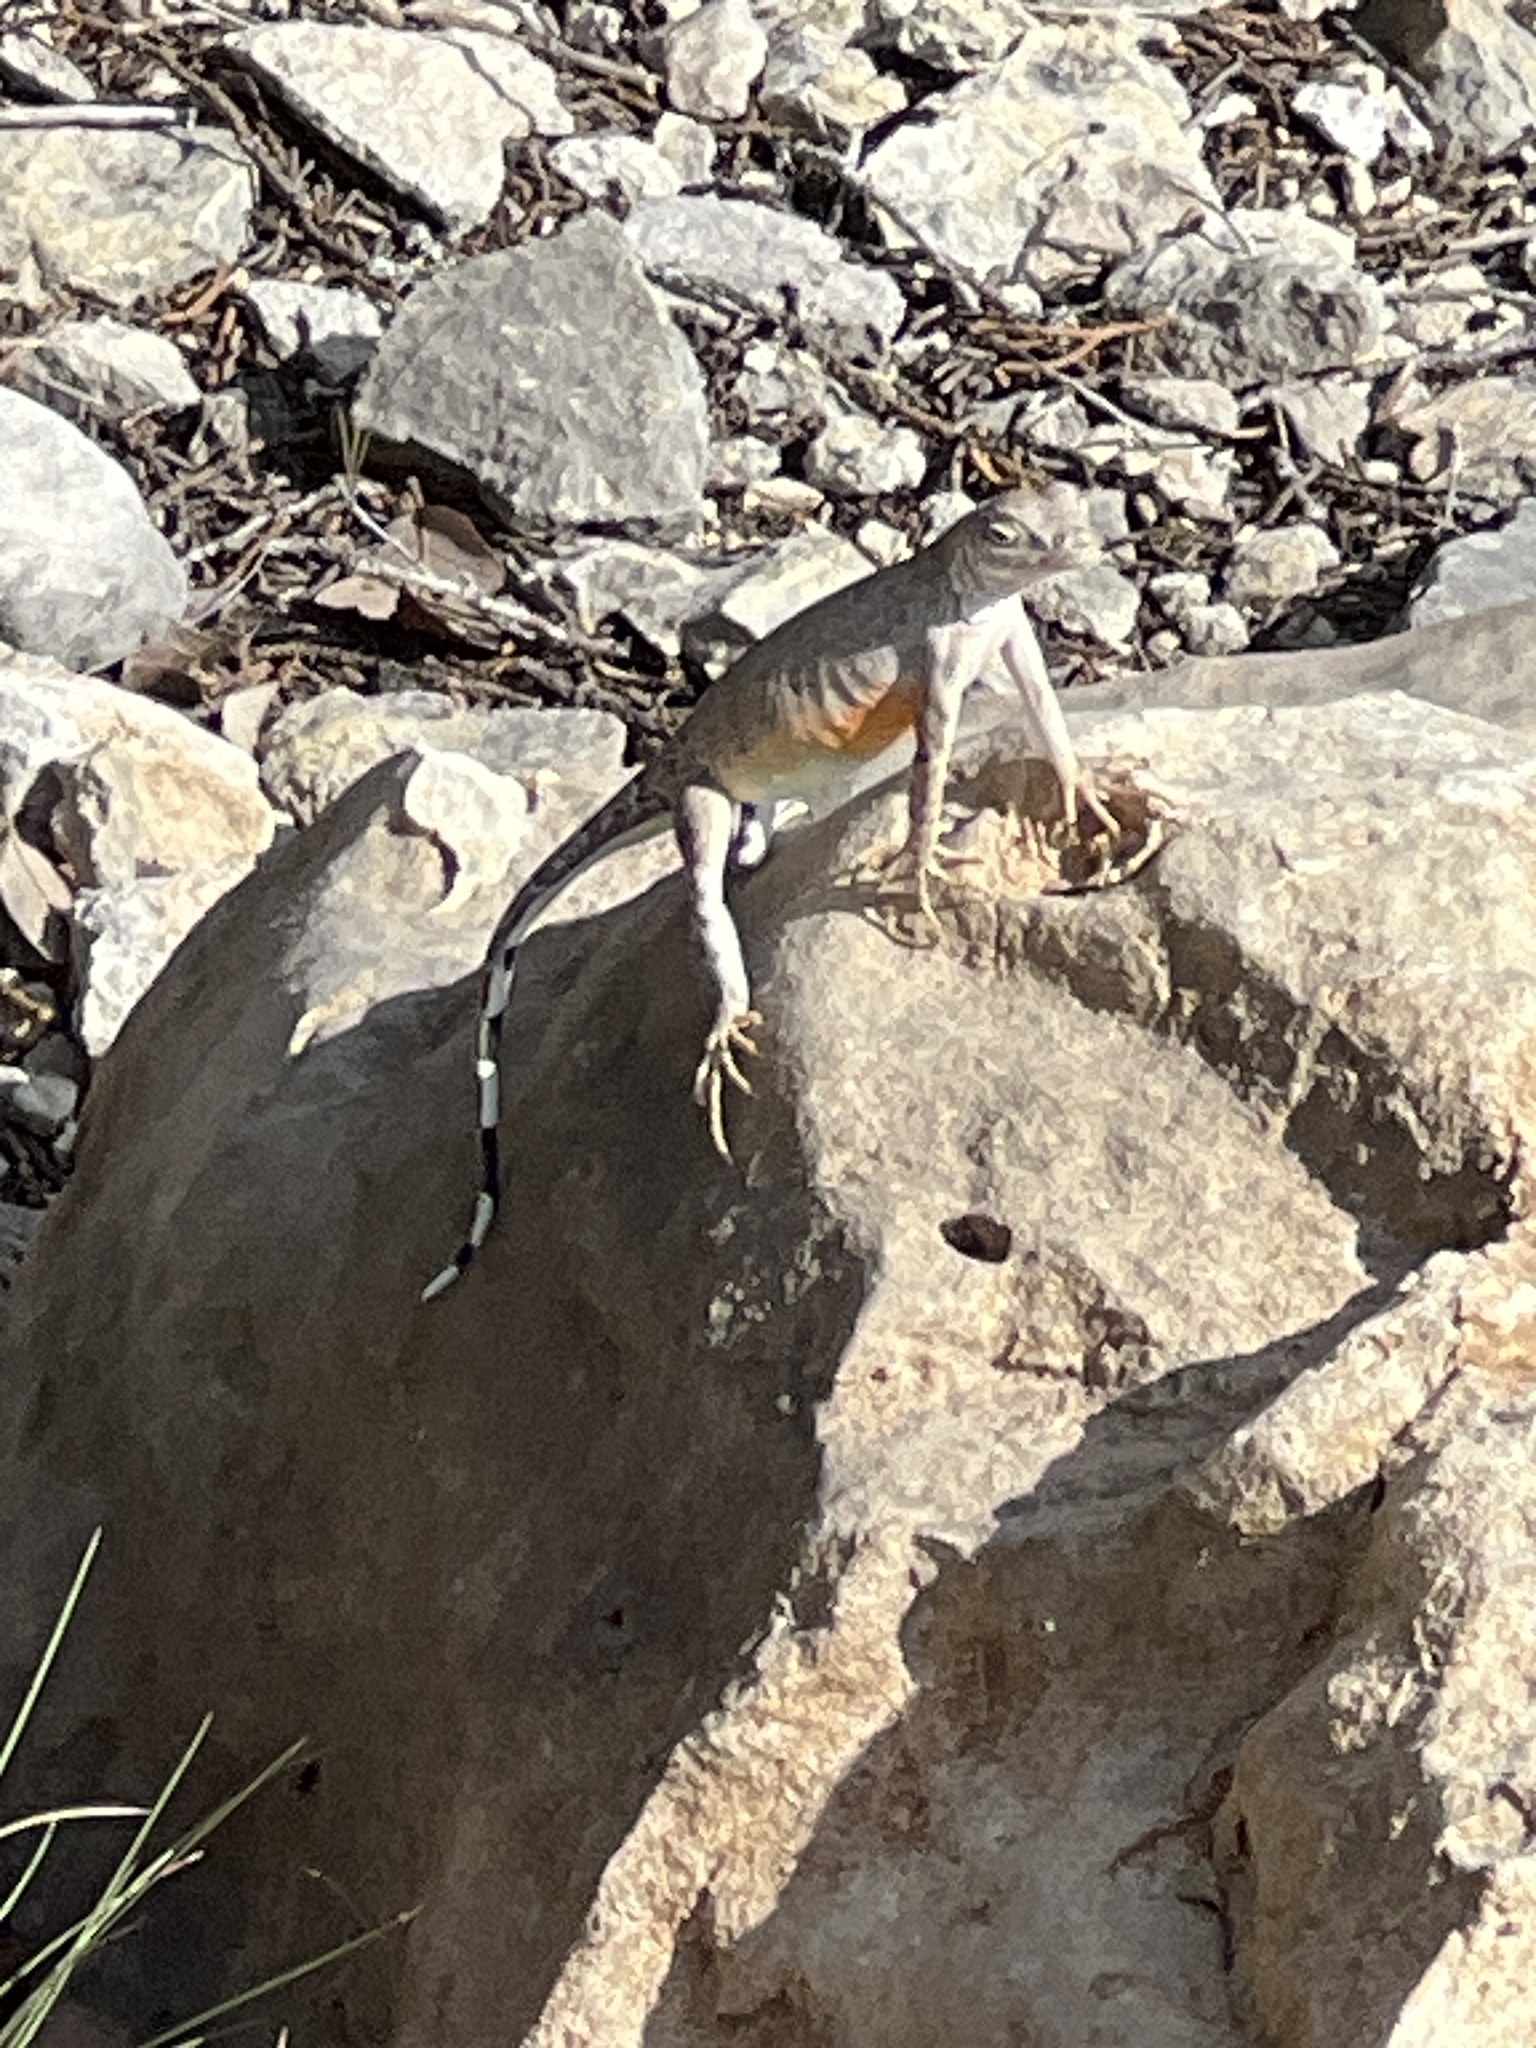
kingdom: Animalia
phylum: Chordata
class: Squamata
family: Phrynosomatidae
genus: Cophosaurus
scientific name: Cophosaurus texanus
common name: Greater earless lizard
